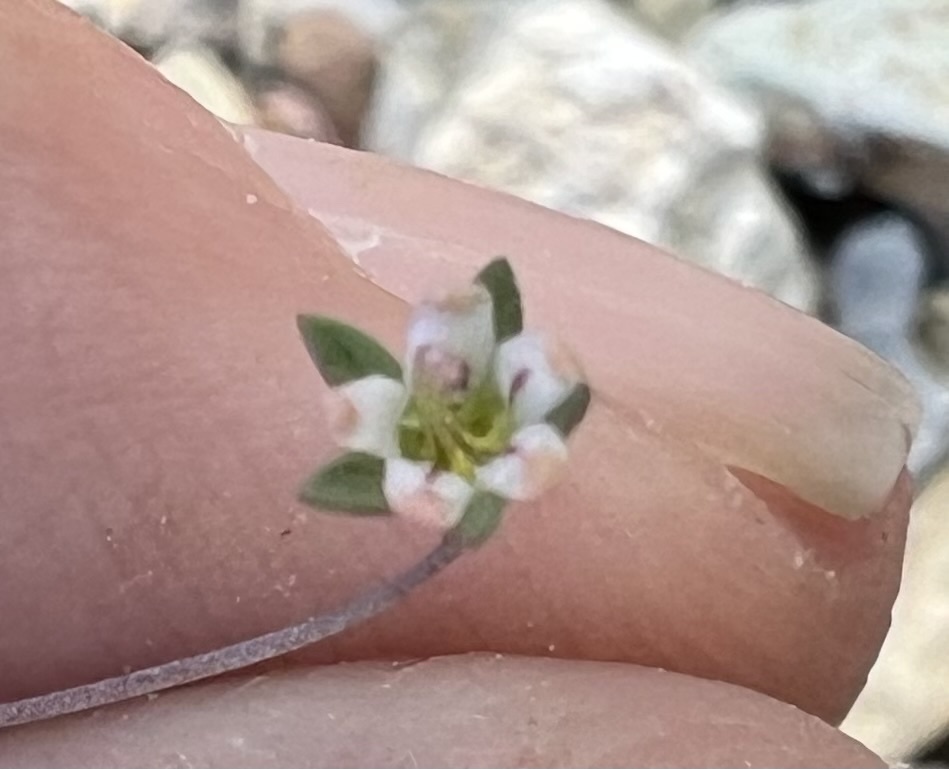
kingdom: Plantae
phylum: Tracheophyta
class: Magnoliopsida
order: Asterales
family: Campanulaceae
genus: Nemacladus
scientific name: Nemacladus inyoensis
